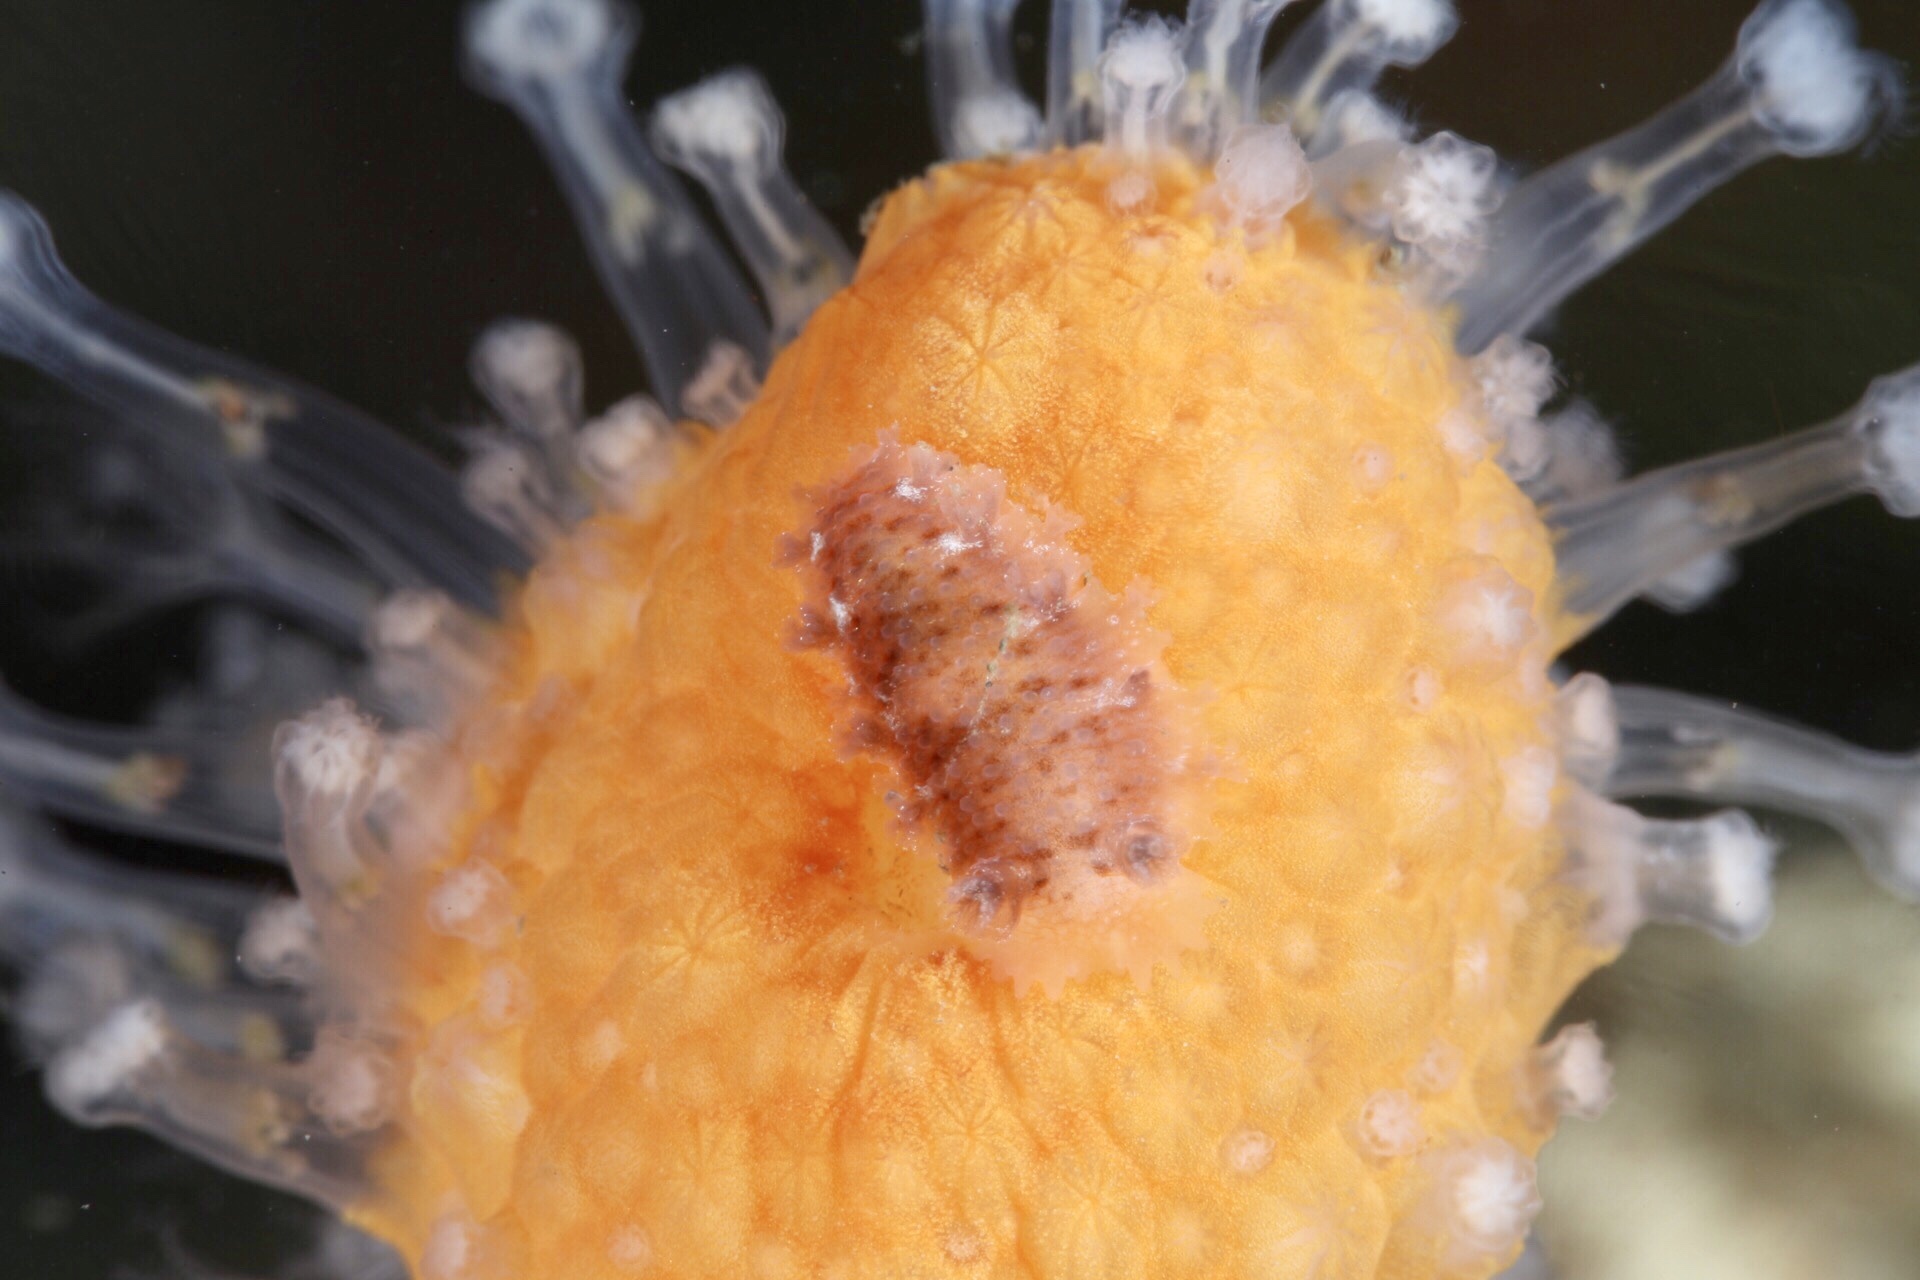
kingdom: Animalia
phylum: Mollusca
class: Gastropoda
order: Nudibranchia
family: Tritoniidae
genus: Tritonia
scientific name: Tritonia hombergii
